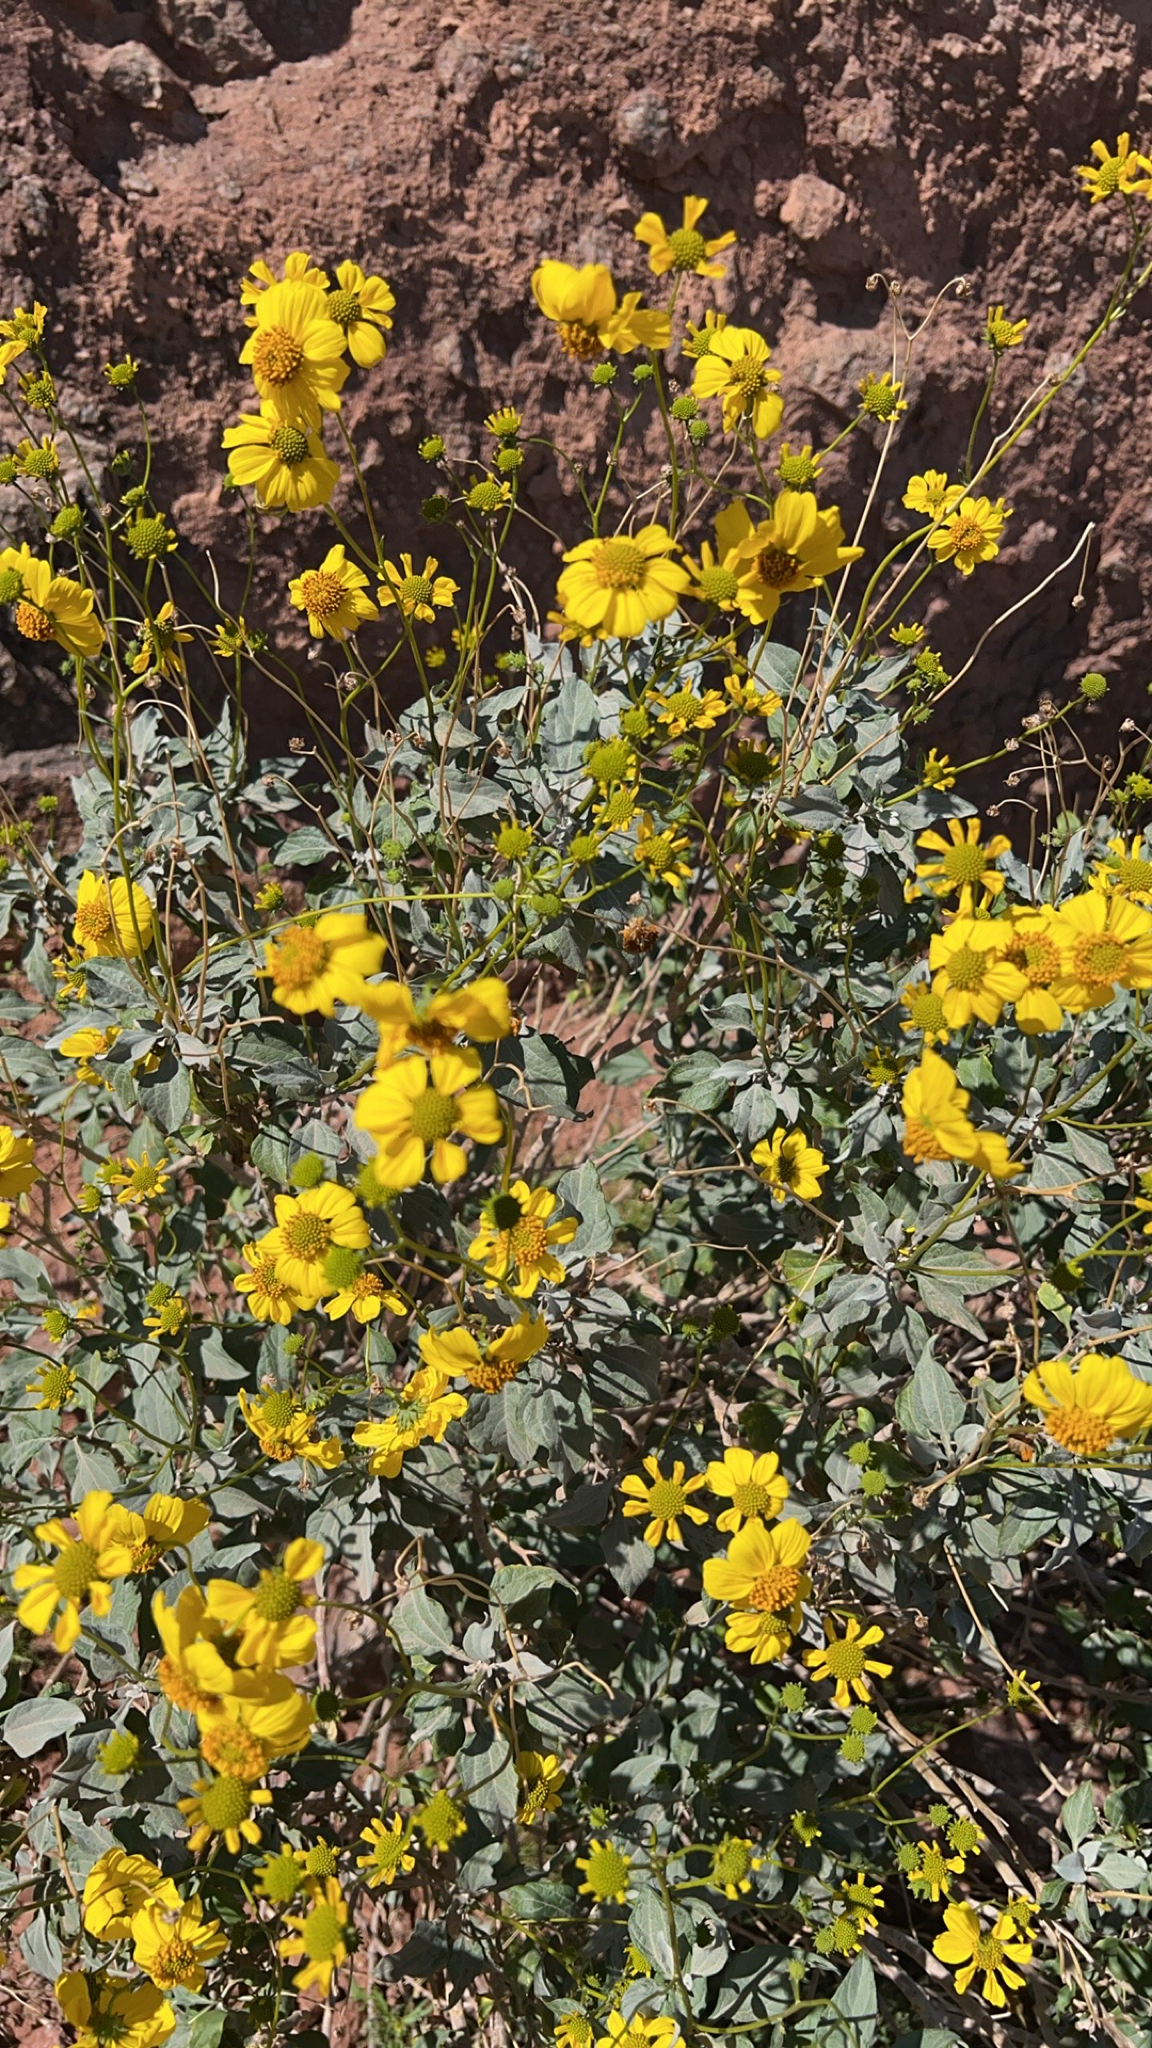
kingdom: Plantae
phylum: Tracheophyta
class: Magnoliopsida
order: Asterales
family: Asteraceae
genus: Encelia
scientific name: Encelia farinosa
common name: Brittlebush
